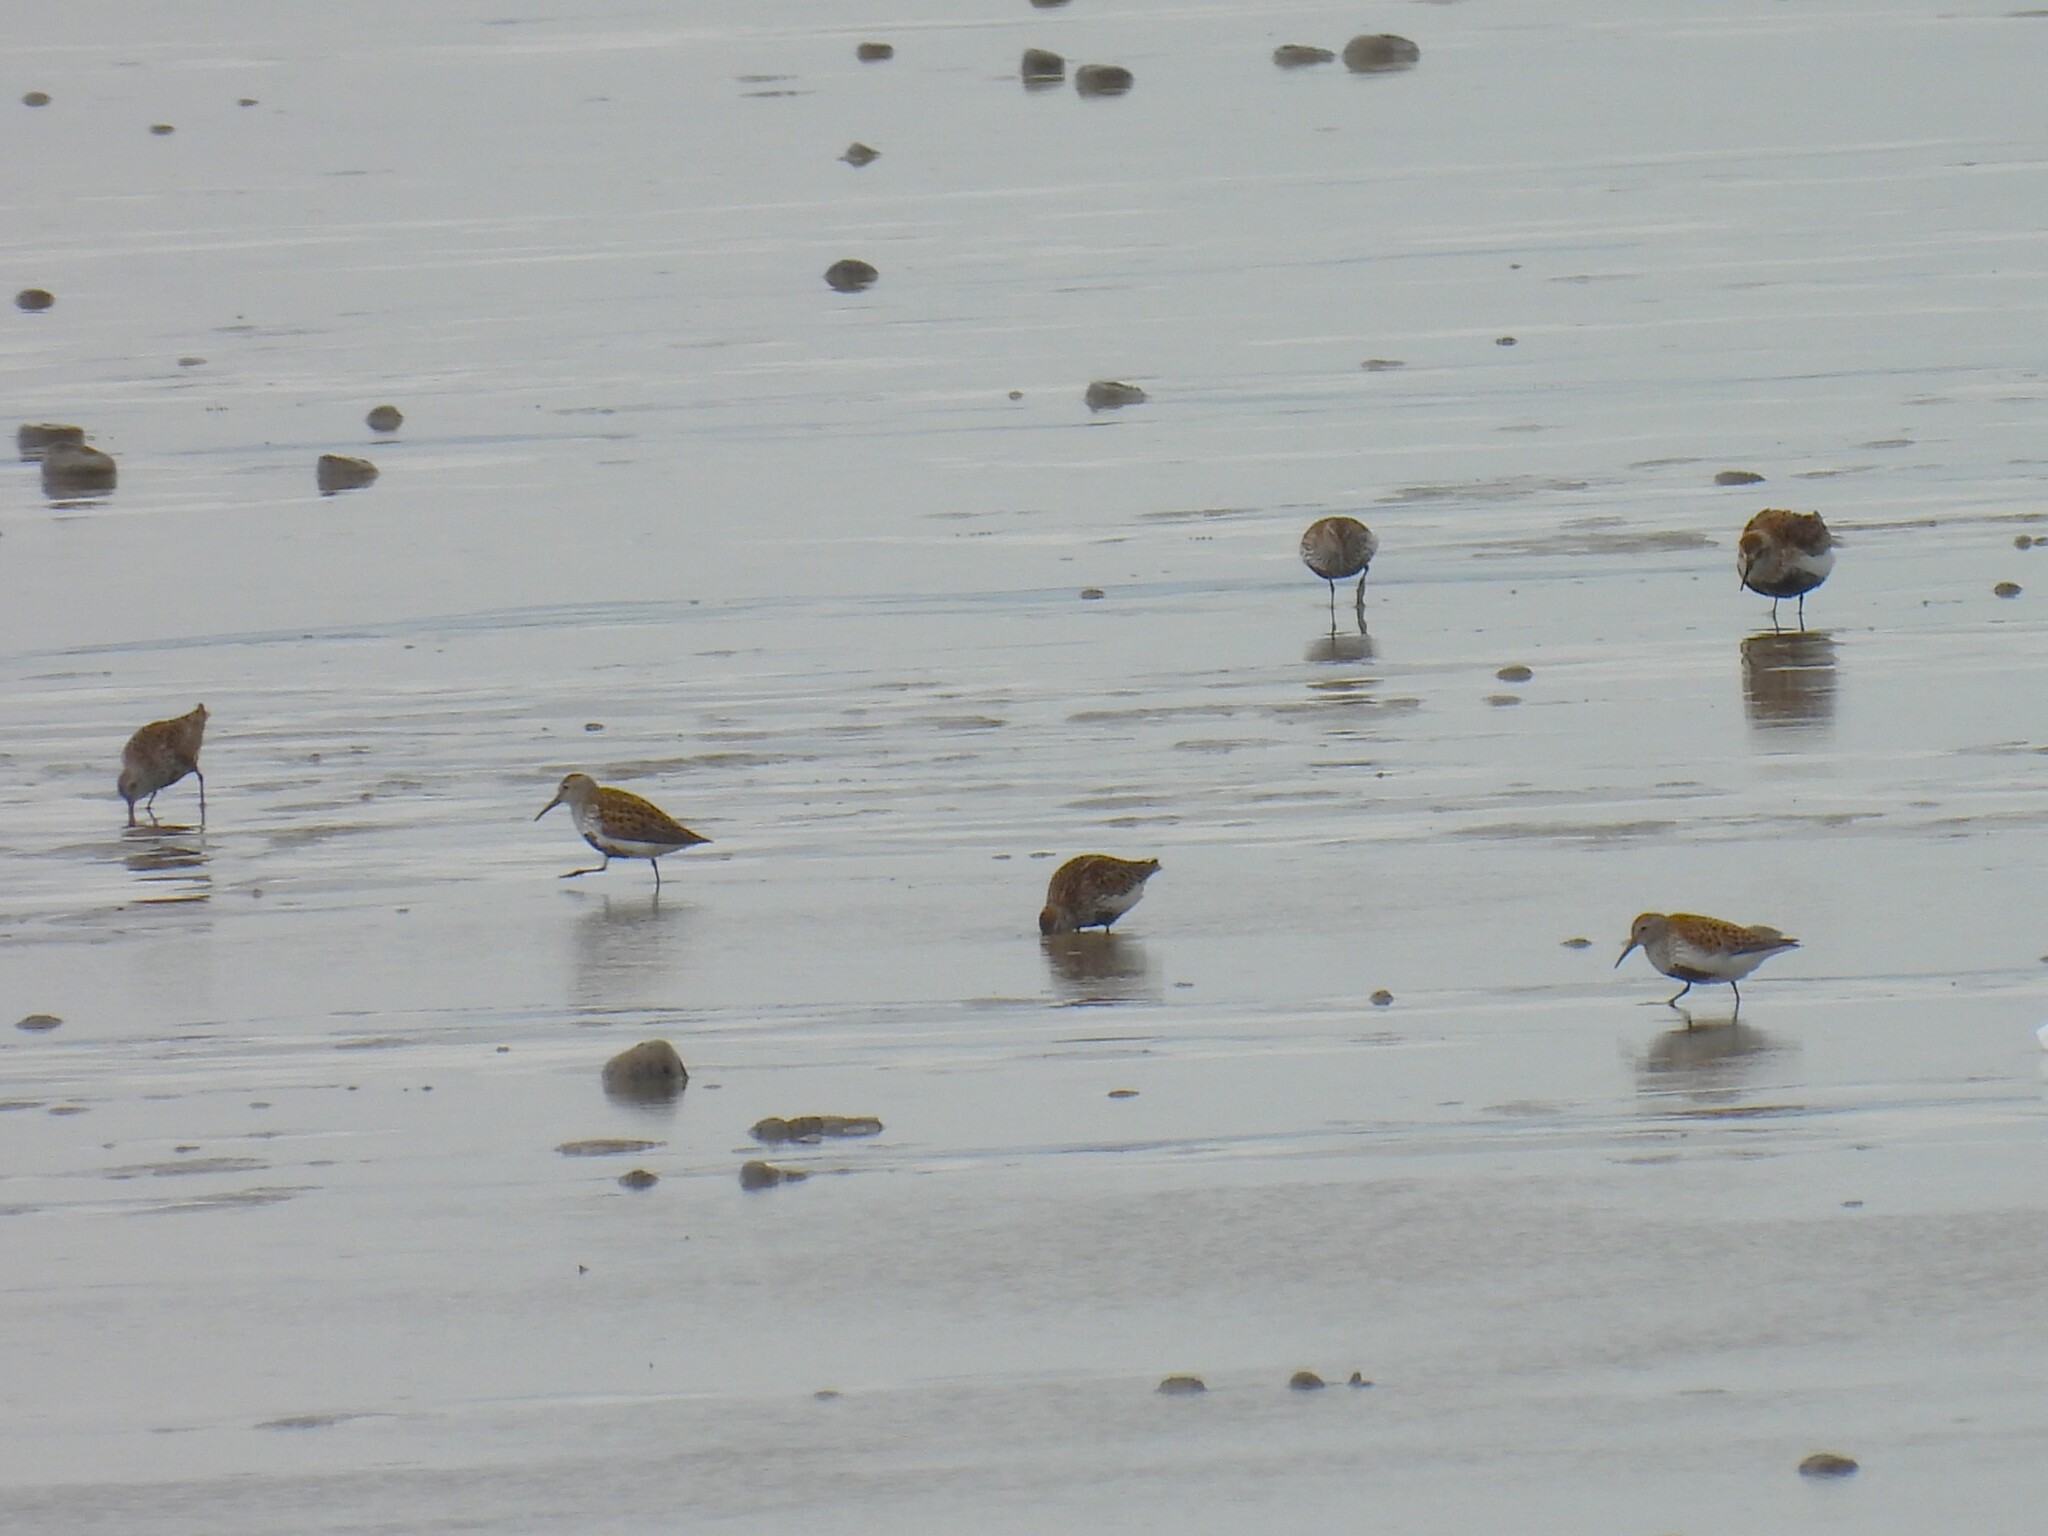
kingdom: Animalia
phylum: Chordata
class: Aves
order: Charadriiformes
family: Scolopacidae
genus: Calidris
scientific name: Calidris alpina
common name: Dunlin
